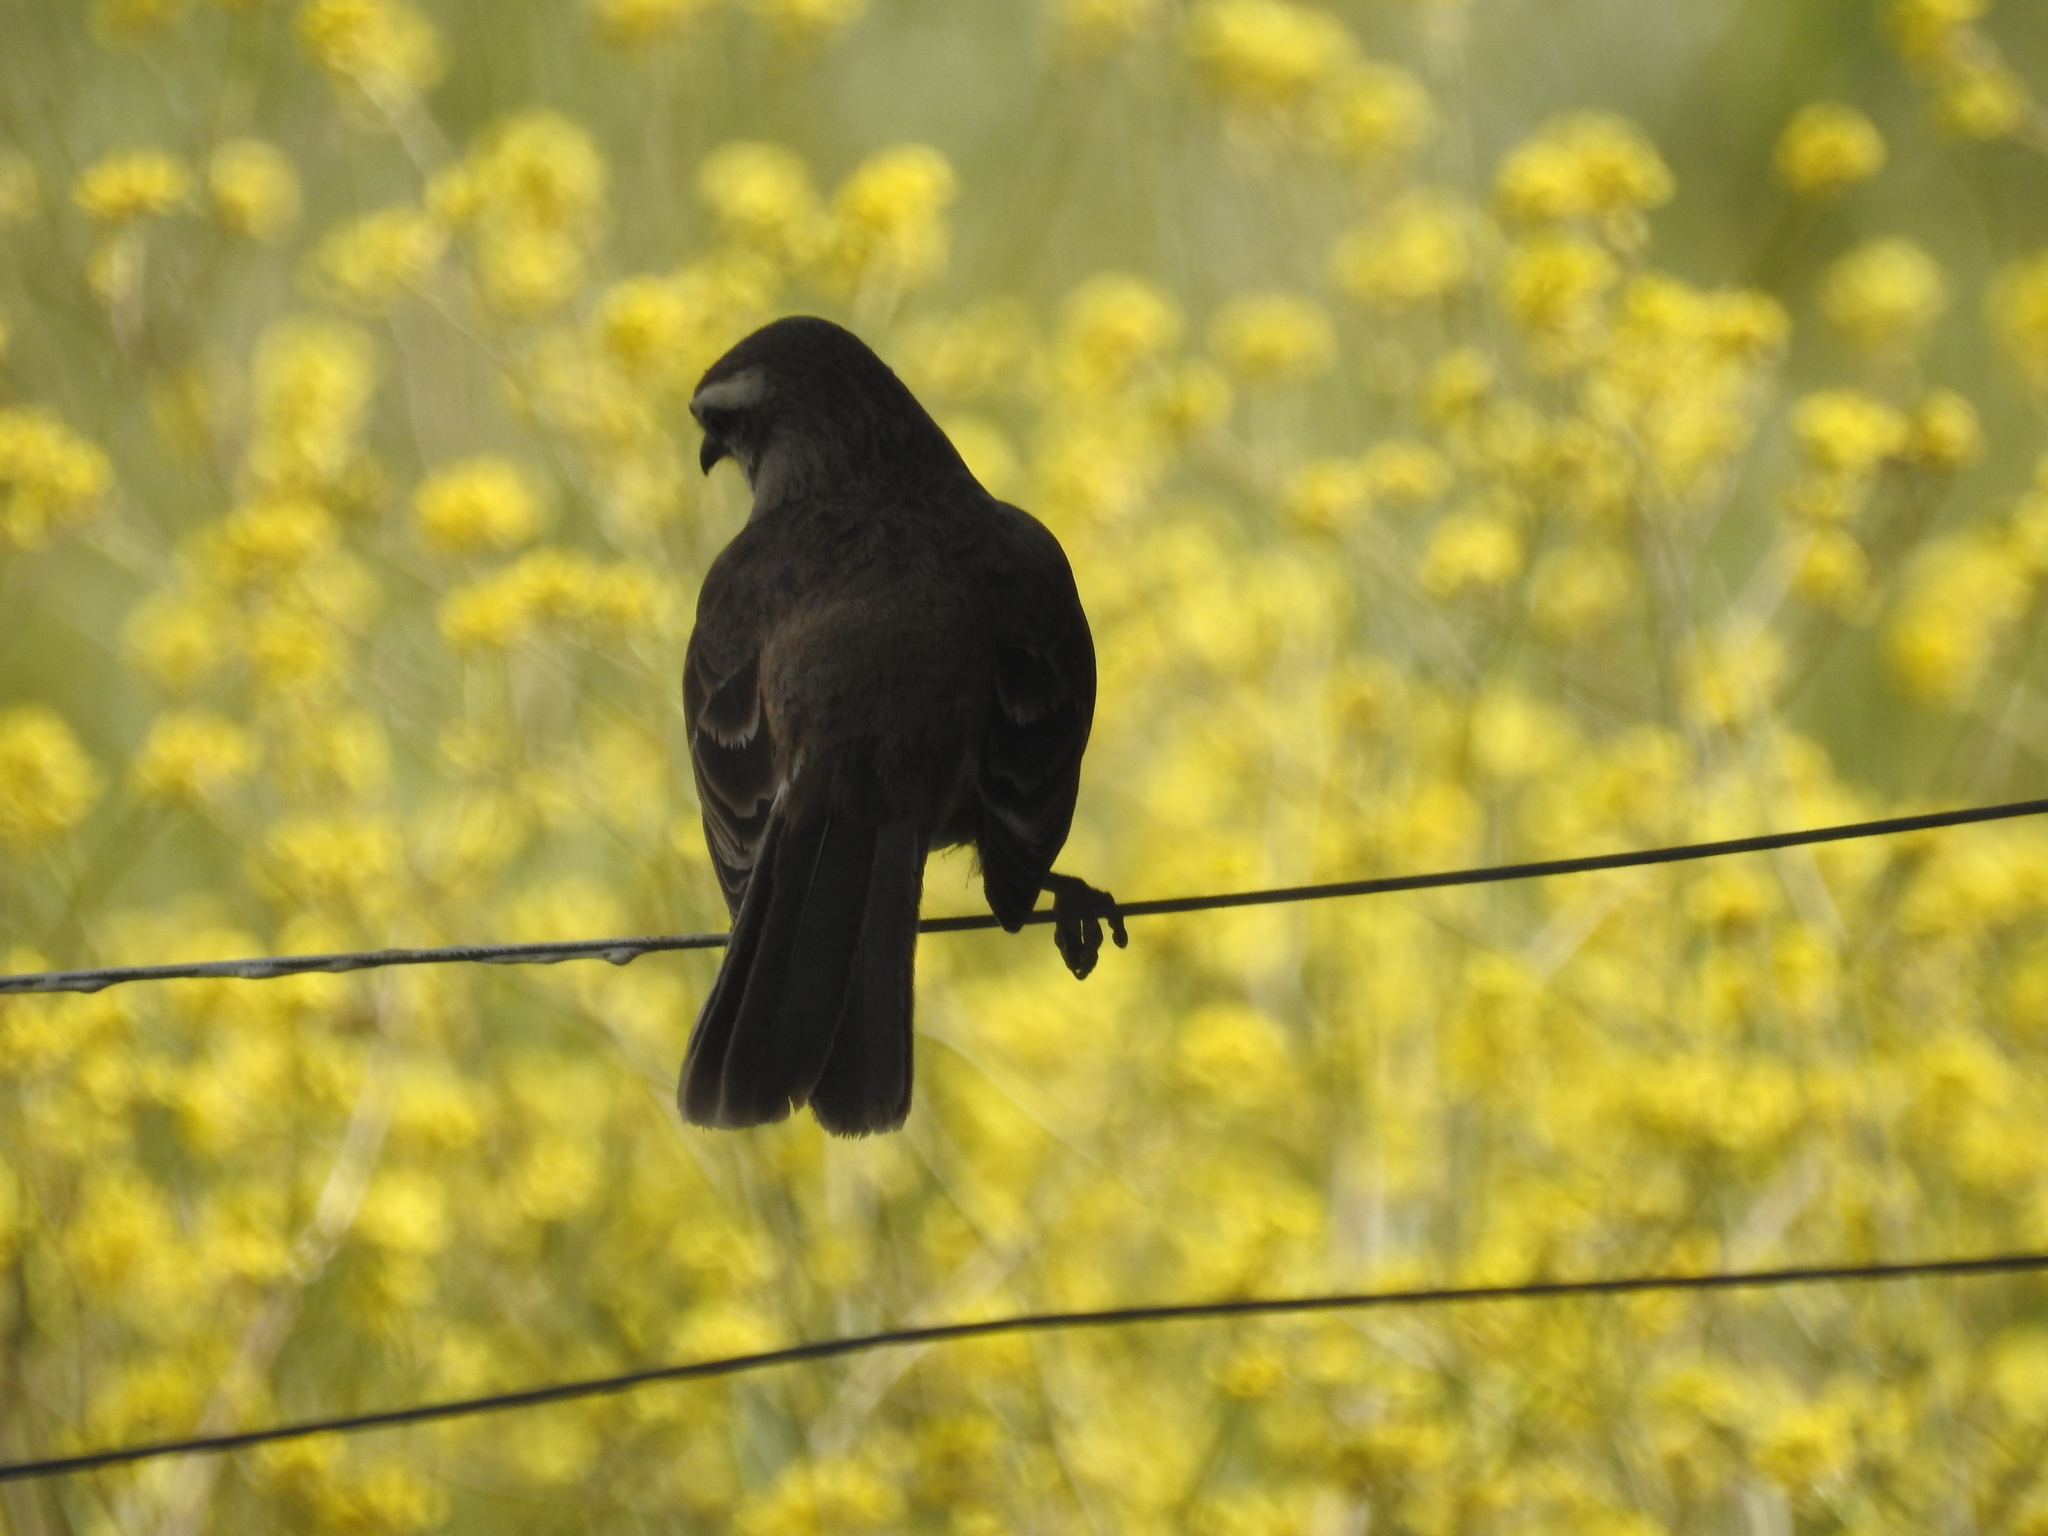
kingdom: Animalia
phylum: Chordata
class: Aves
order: Passeriformes
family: Mimidae
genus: Mimus
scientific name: Mimus saturninus
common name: Chalk-browed mockingbird
